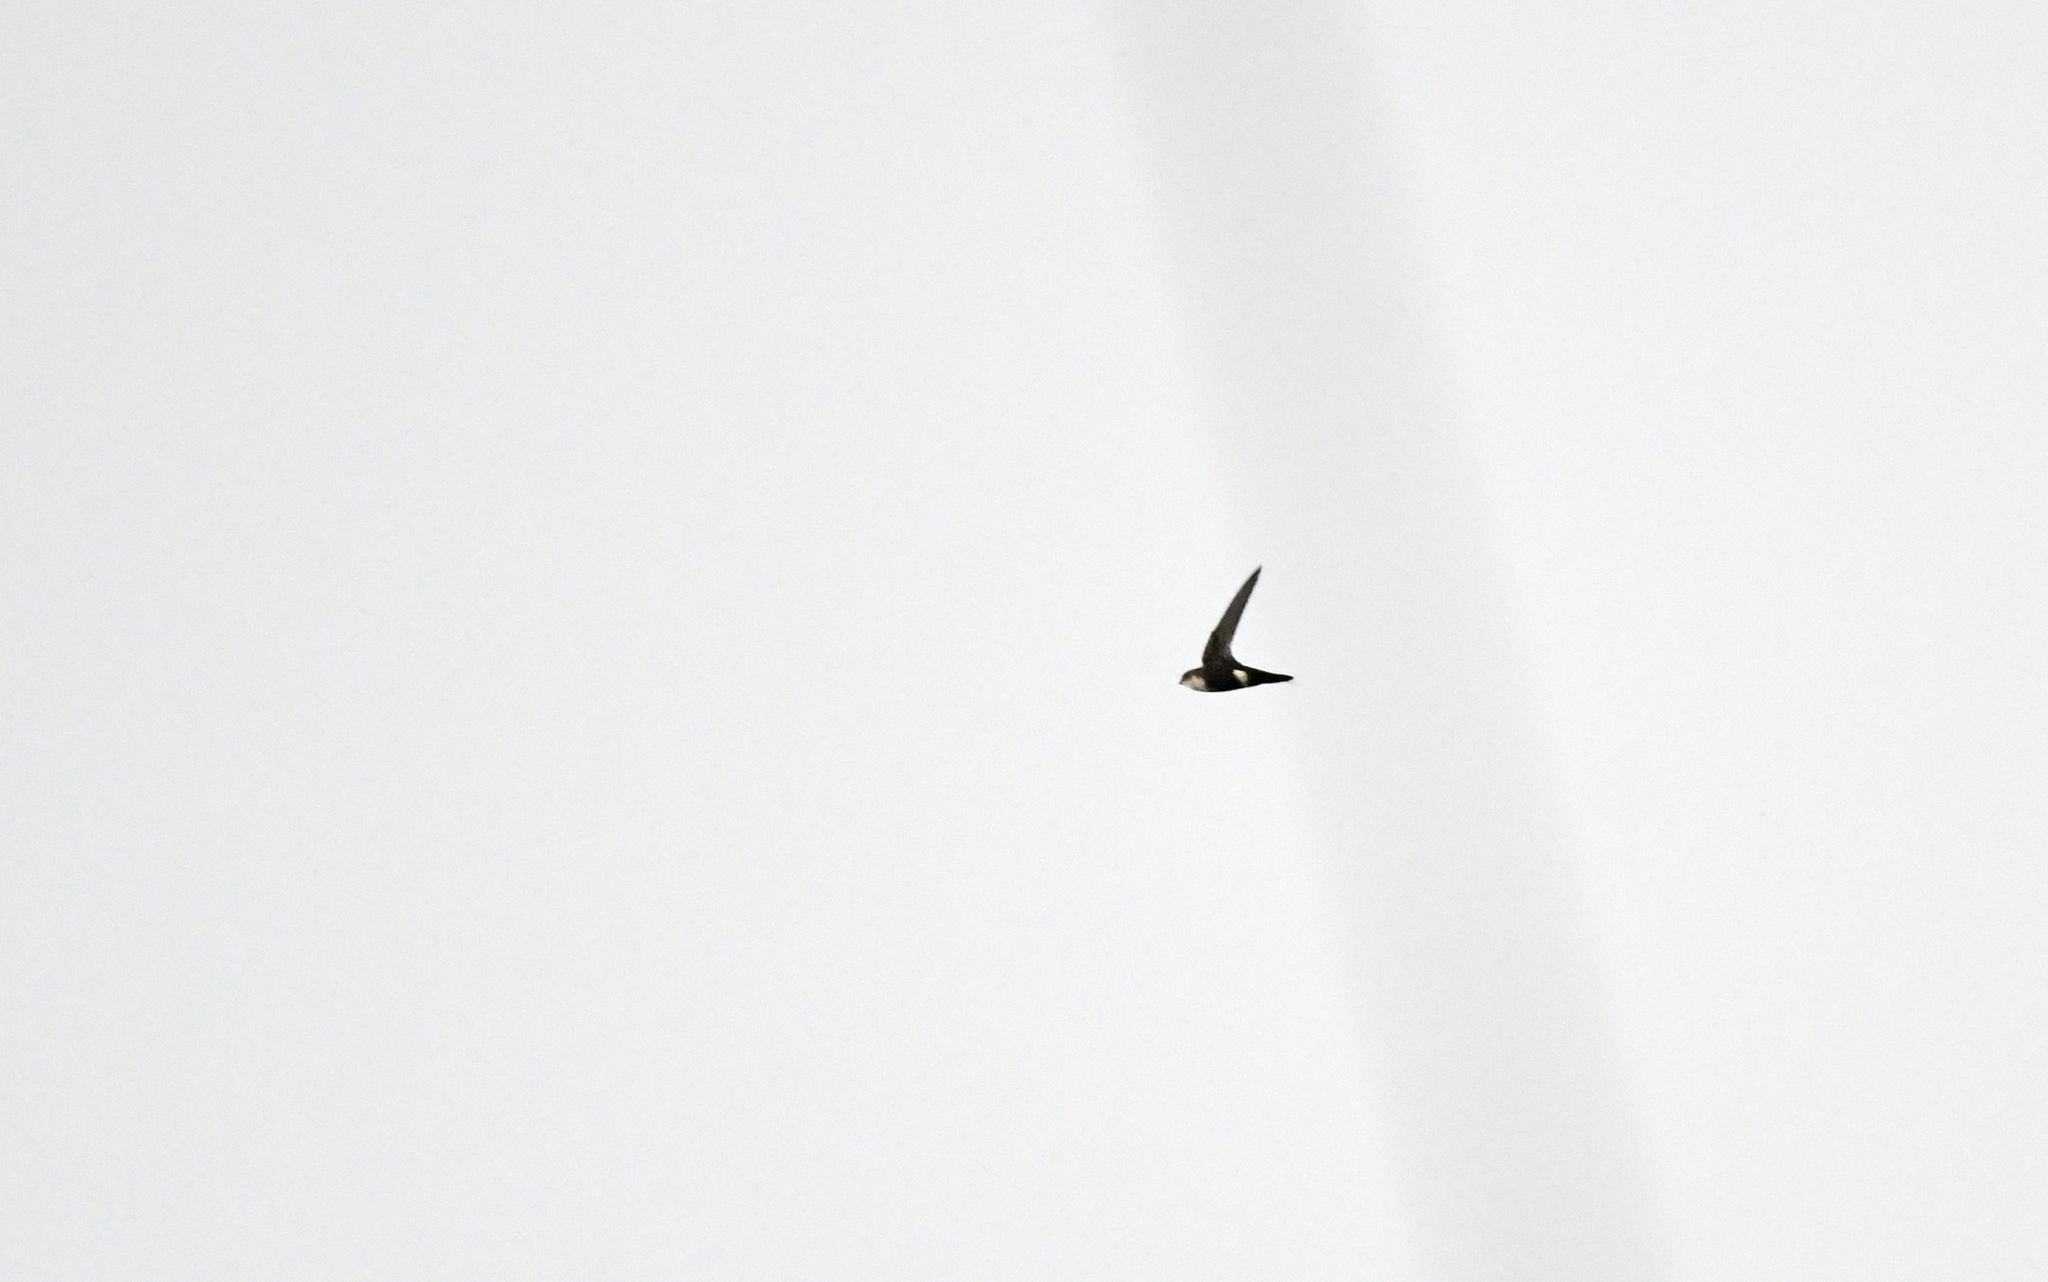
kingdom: Animalia
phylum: Chordata
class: Aves
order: Apodiformes
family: Apodidae
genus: Aeronautes
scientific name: Aeronautes montivagus
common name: White-tipped swift
